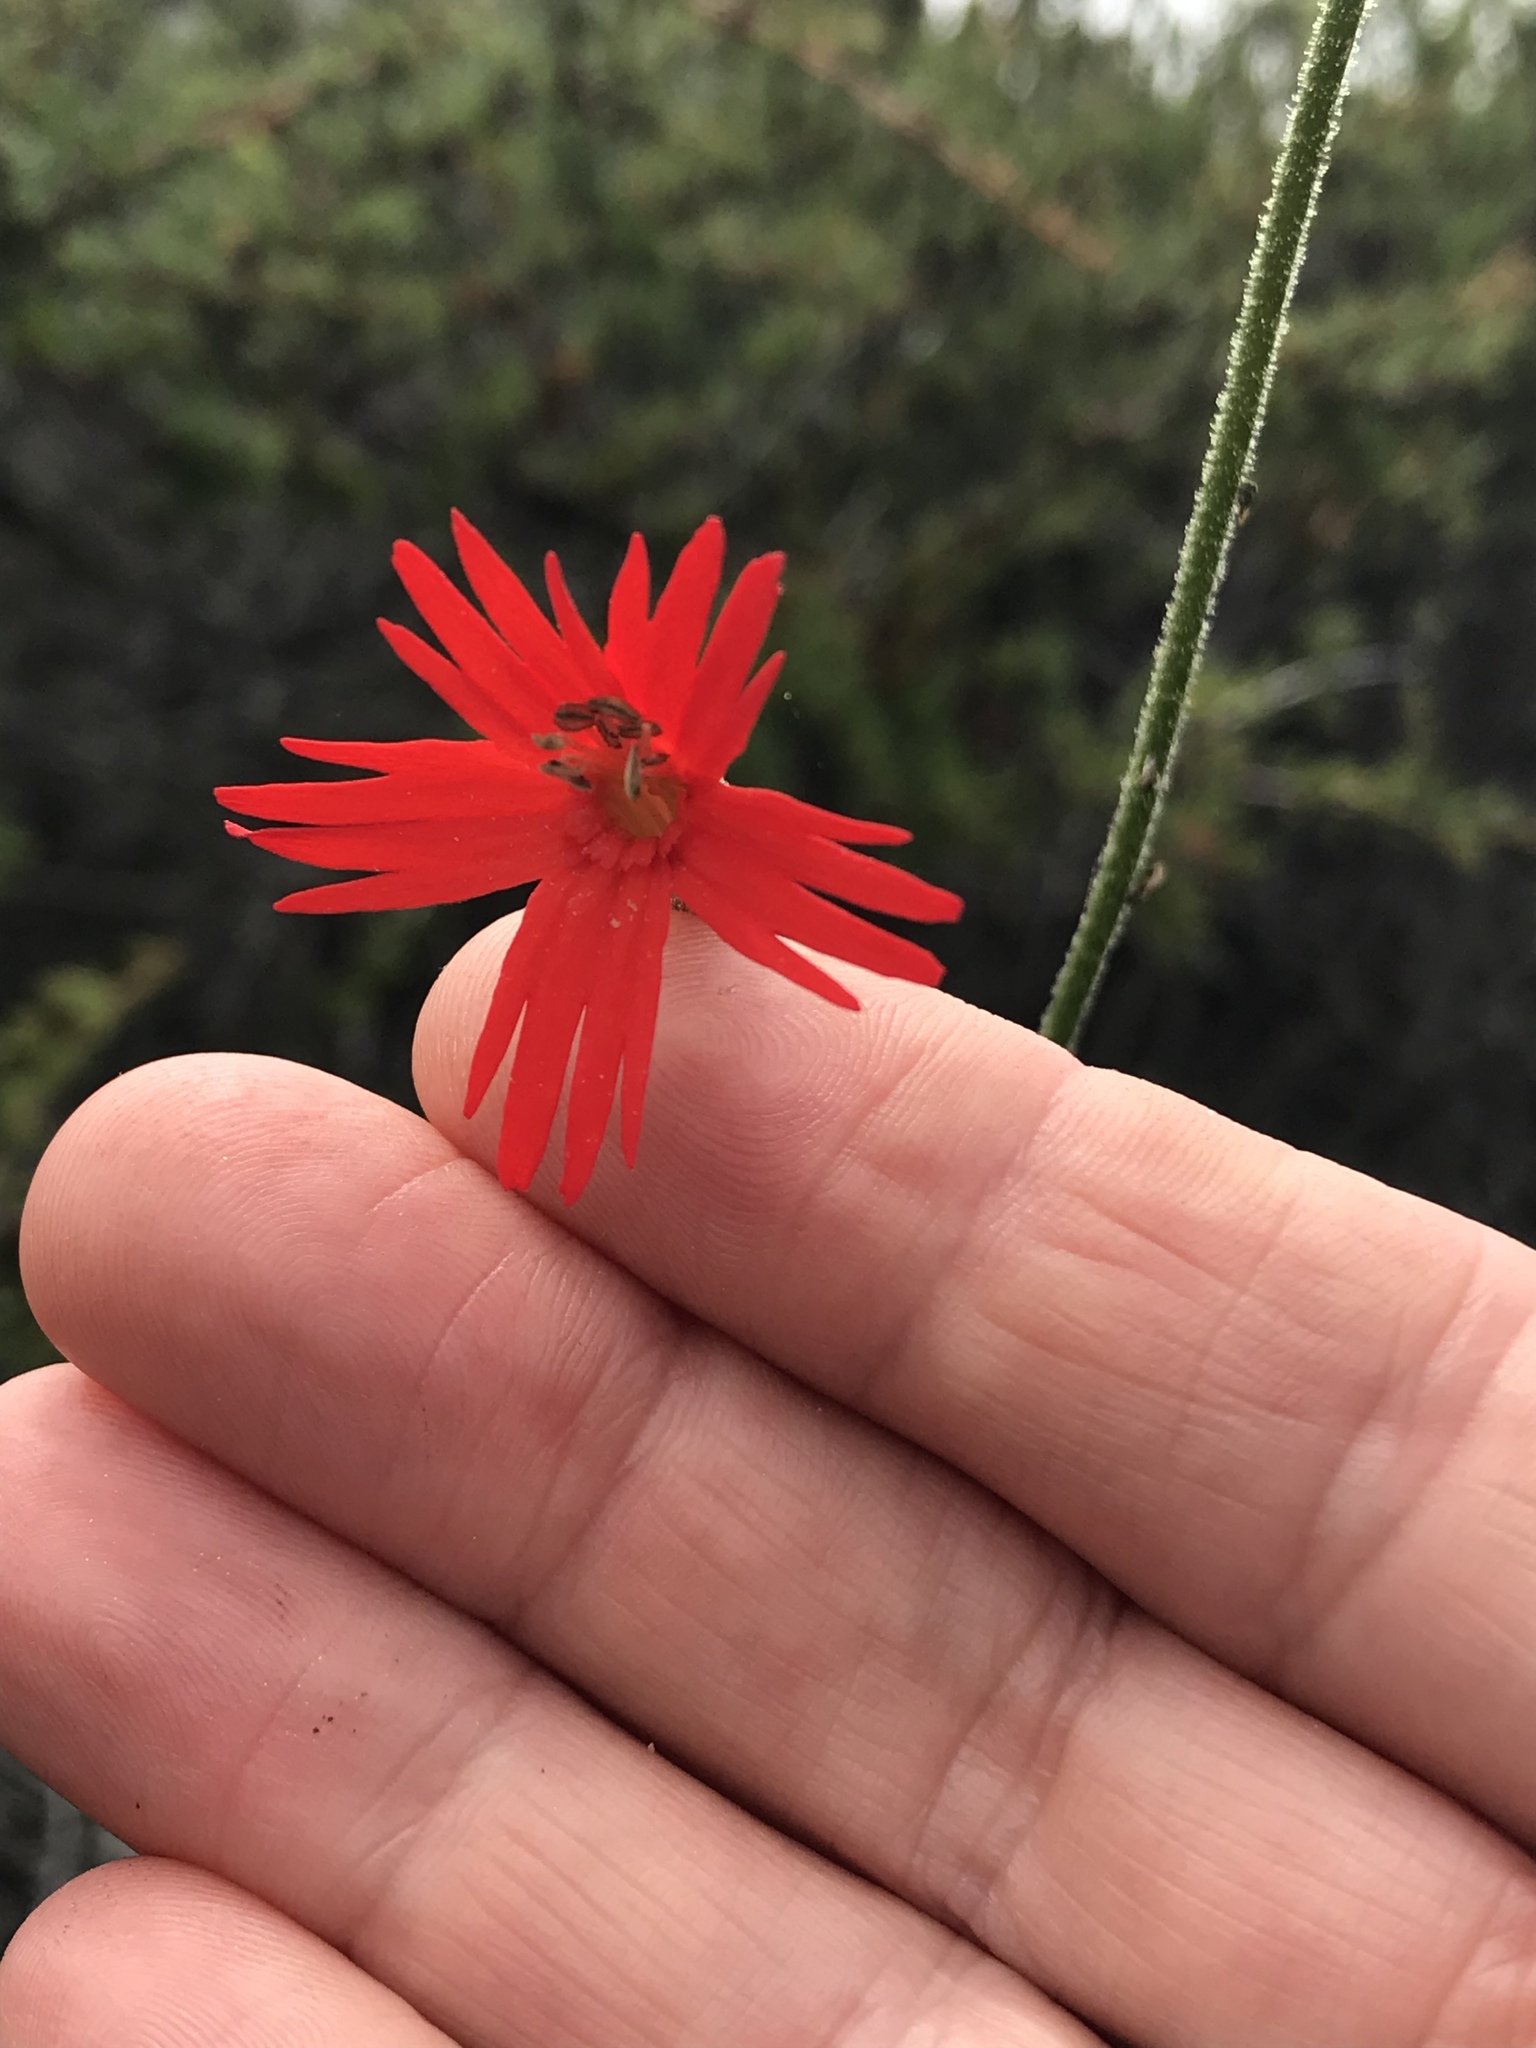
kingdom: Plantae
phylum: Tracheophyta
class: Magnoliopsida
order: Caryophyllales
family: Caryophyllaceae
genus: Silene
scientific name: Silene laciniata
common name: Indian-pink
